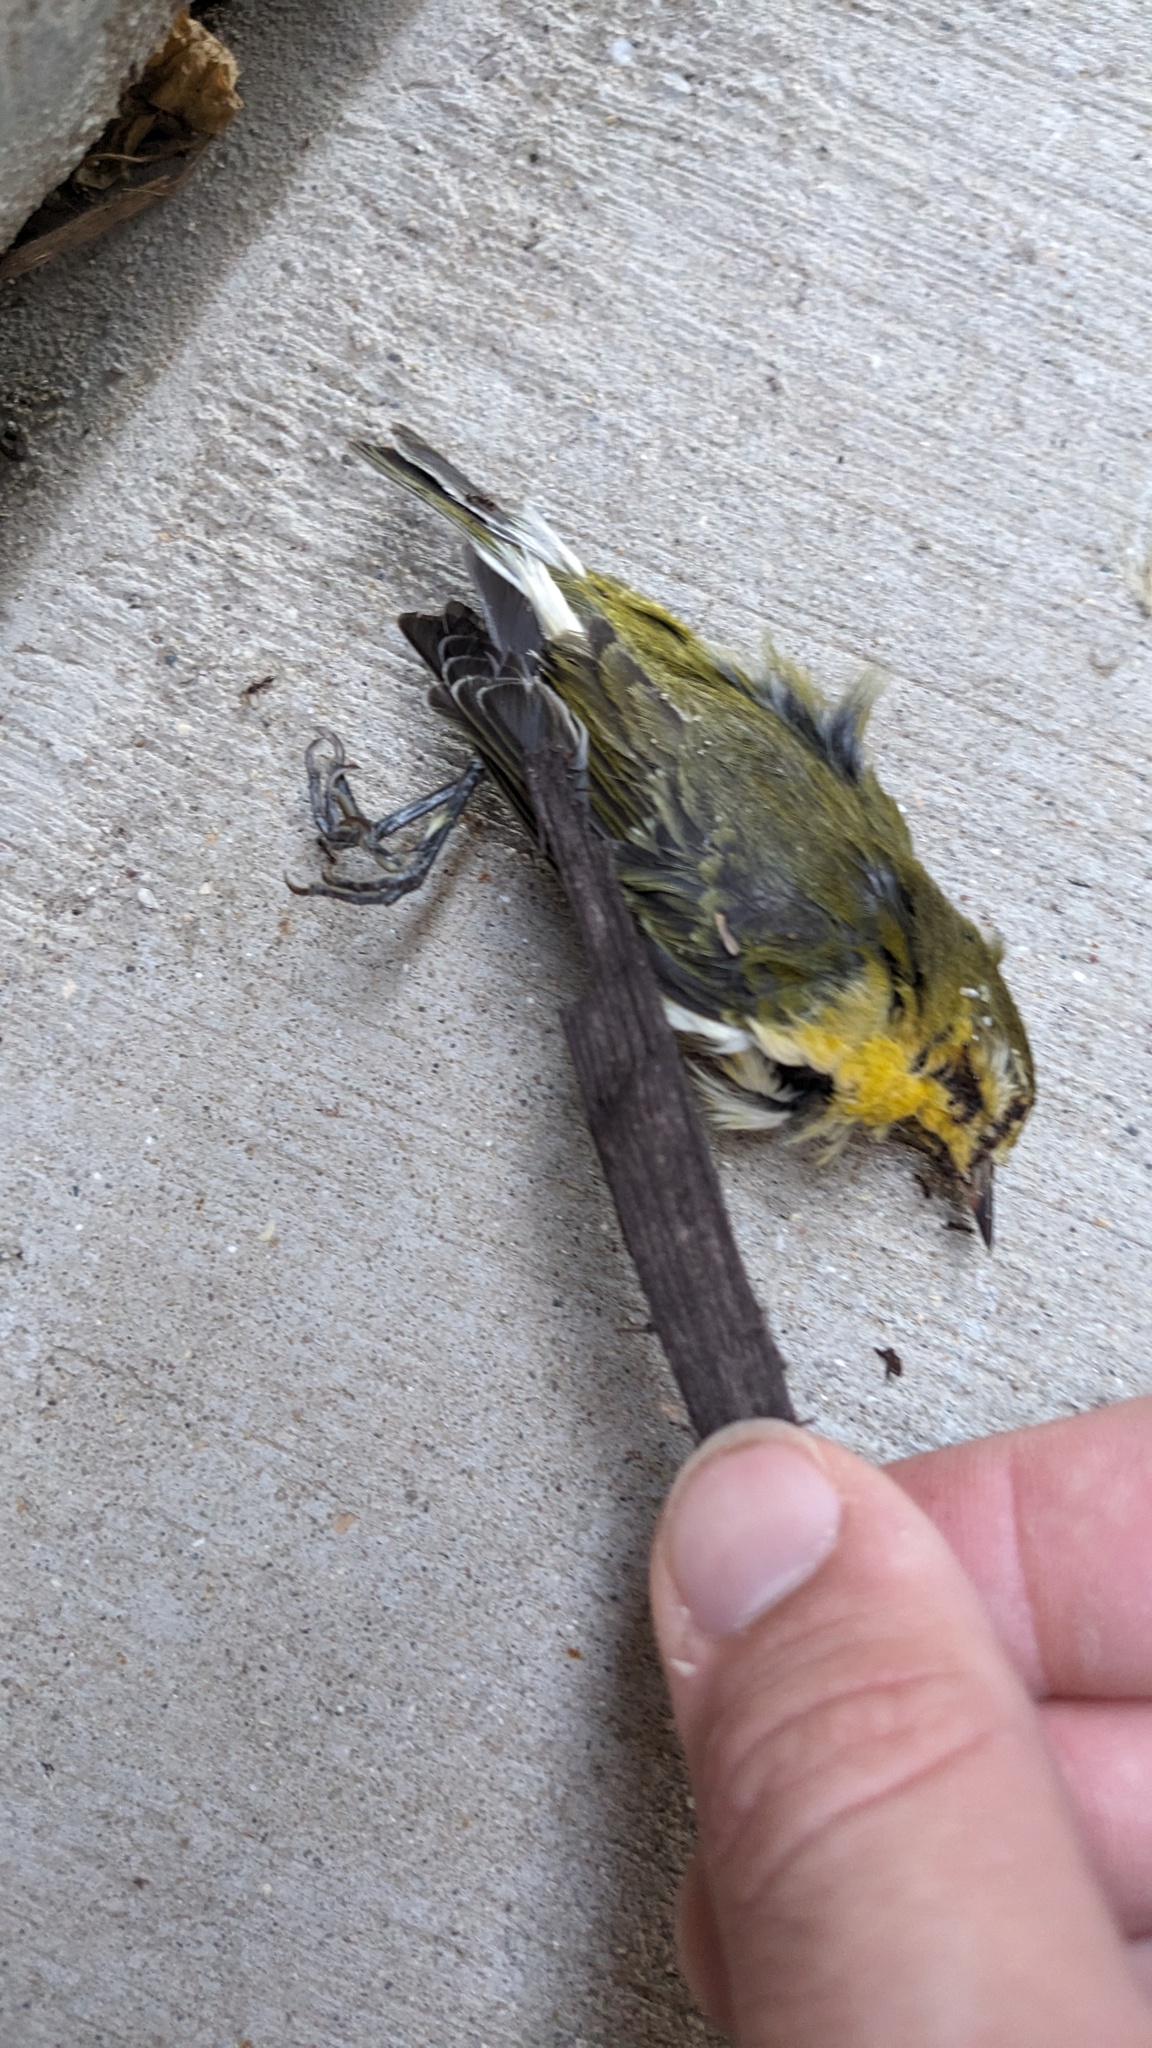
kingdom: Animalia
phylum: Chordata
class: Aves
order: Passeriformes
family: Parulidae
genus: Leiothlypis
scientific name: Leiothlypis peregrina
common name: Tennessee warbler
